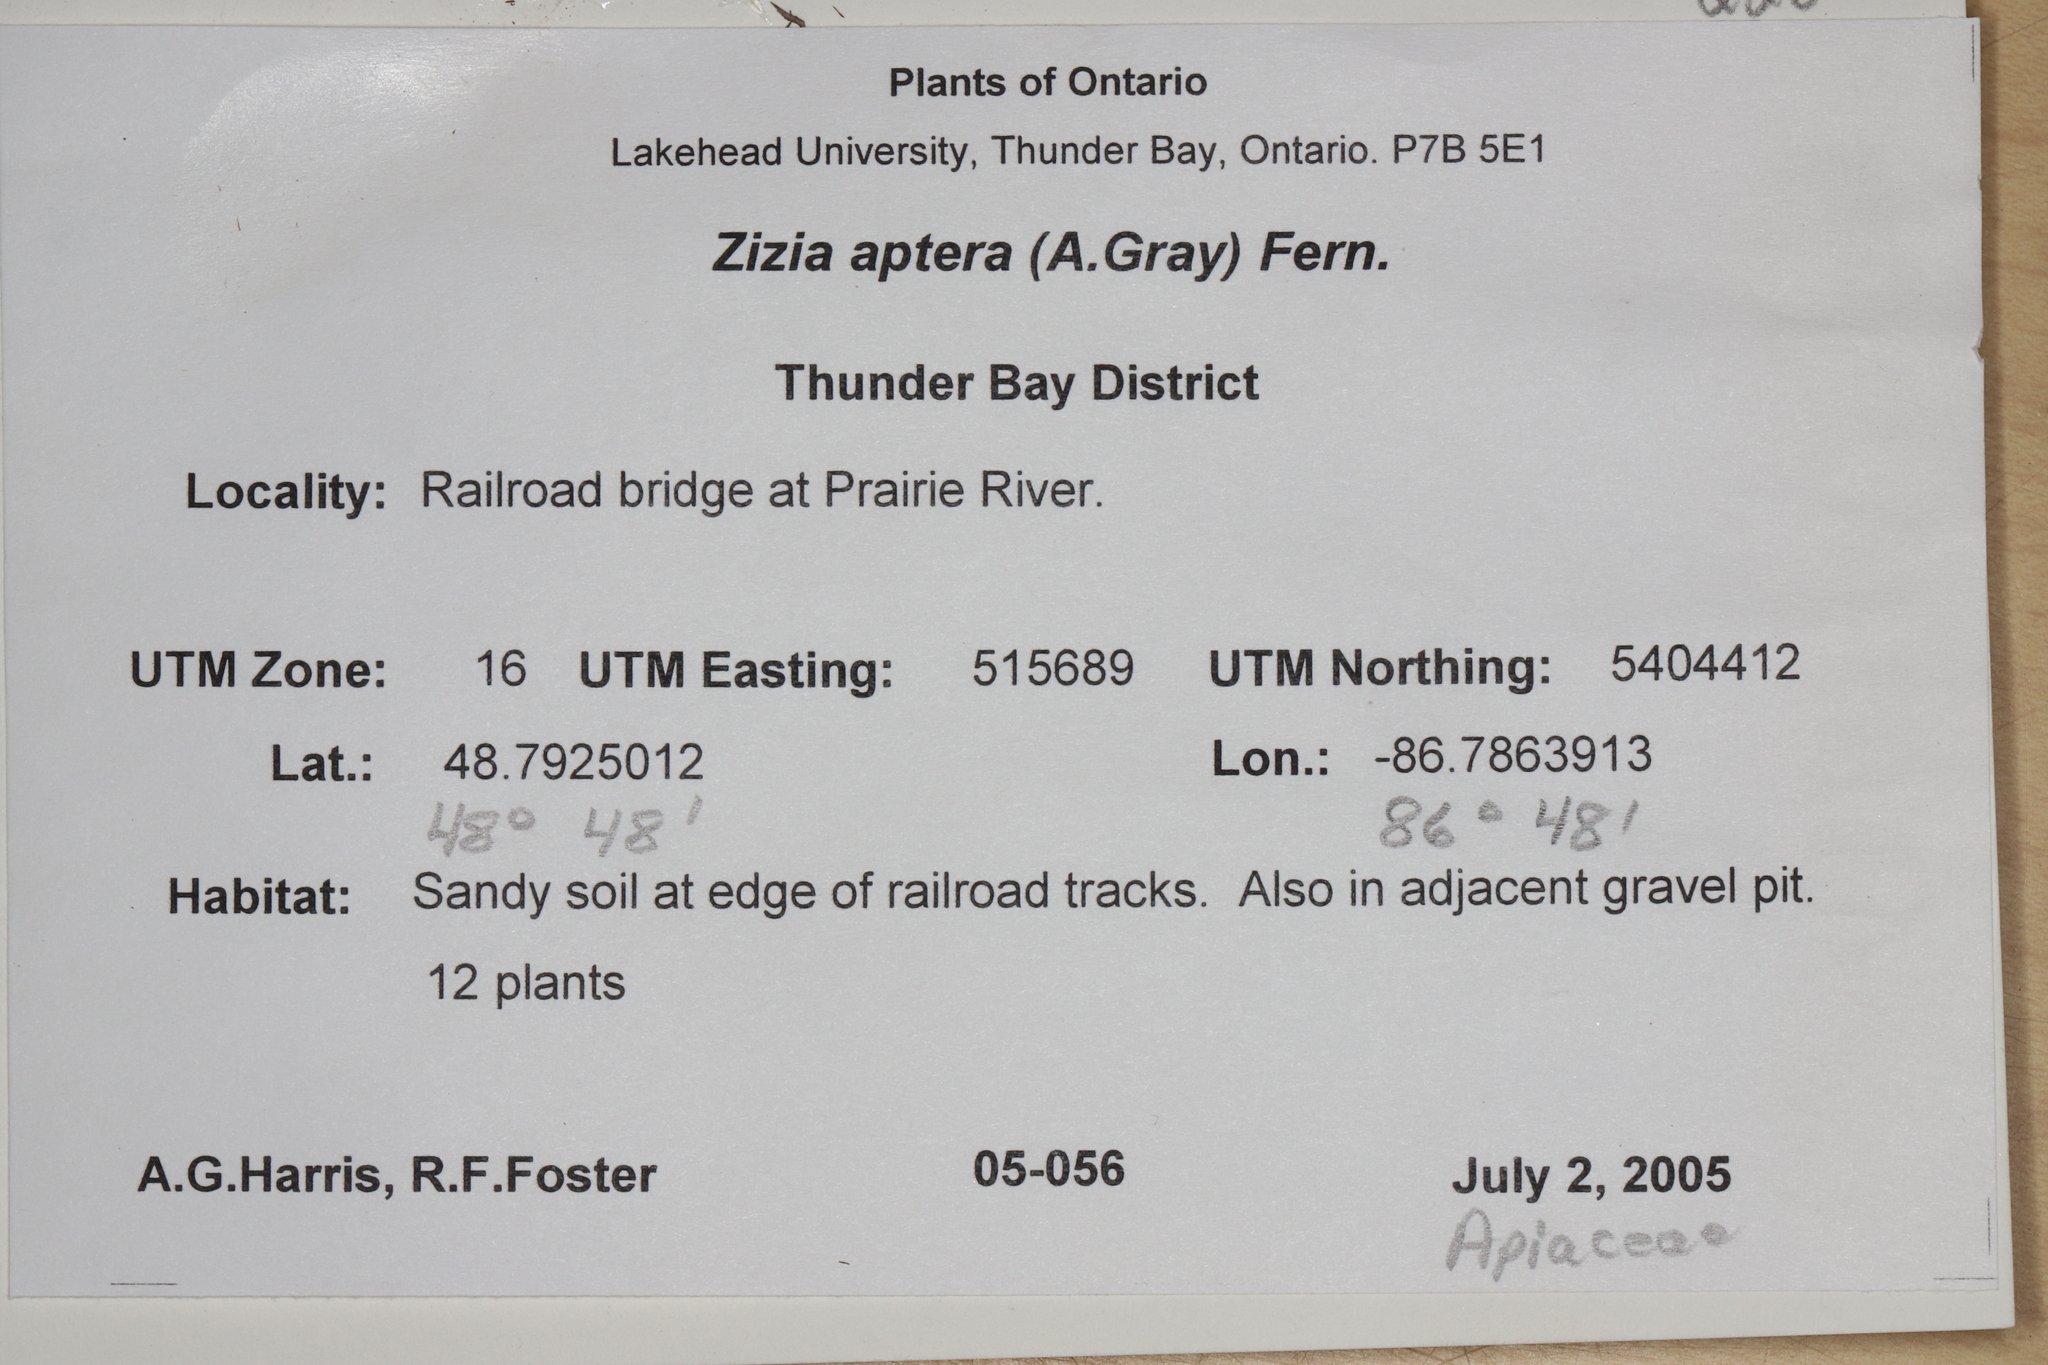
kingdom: Plantae
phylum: Tracheophyta
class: Magnoliopsida
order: Apiales
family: Apiaceae
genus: Zizia
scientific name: Zizia aptera
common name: Heart-leaved alexanders
